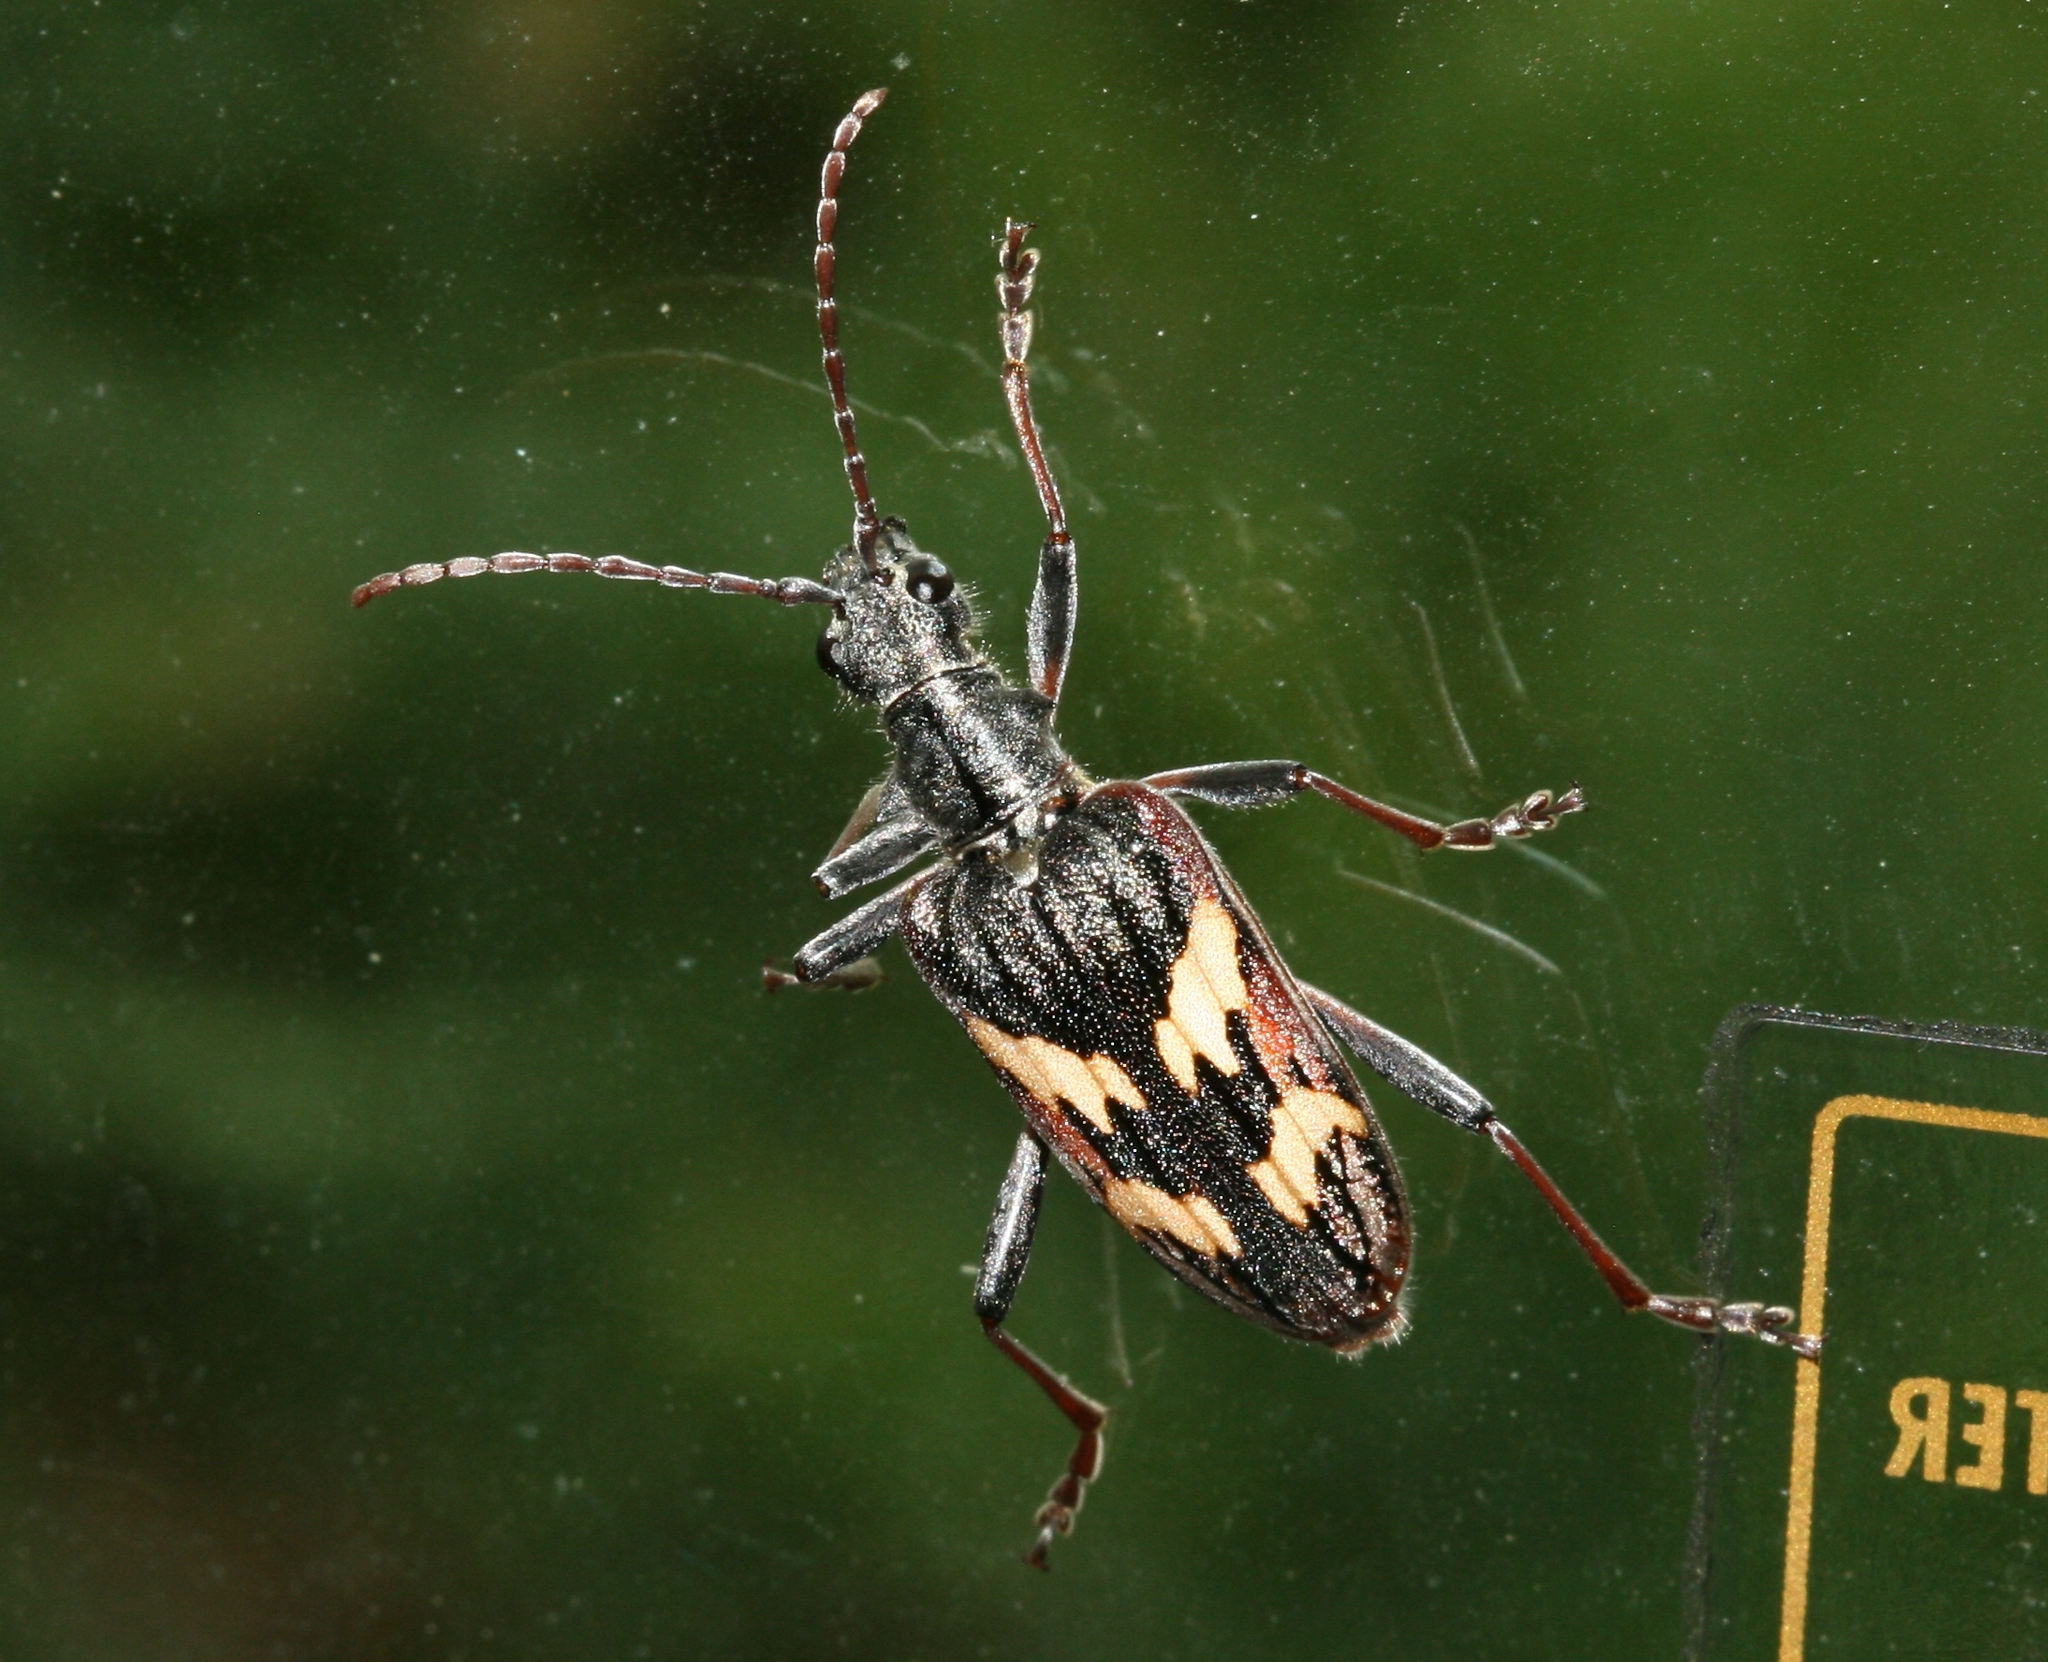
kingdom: Animalia
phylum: Arthropoda
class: Insecta
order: Coleoptera
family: Cerambycidae
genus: Rhagium
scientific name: Rhagium bifasciatum
